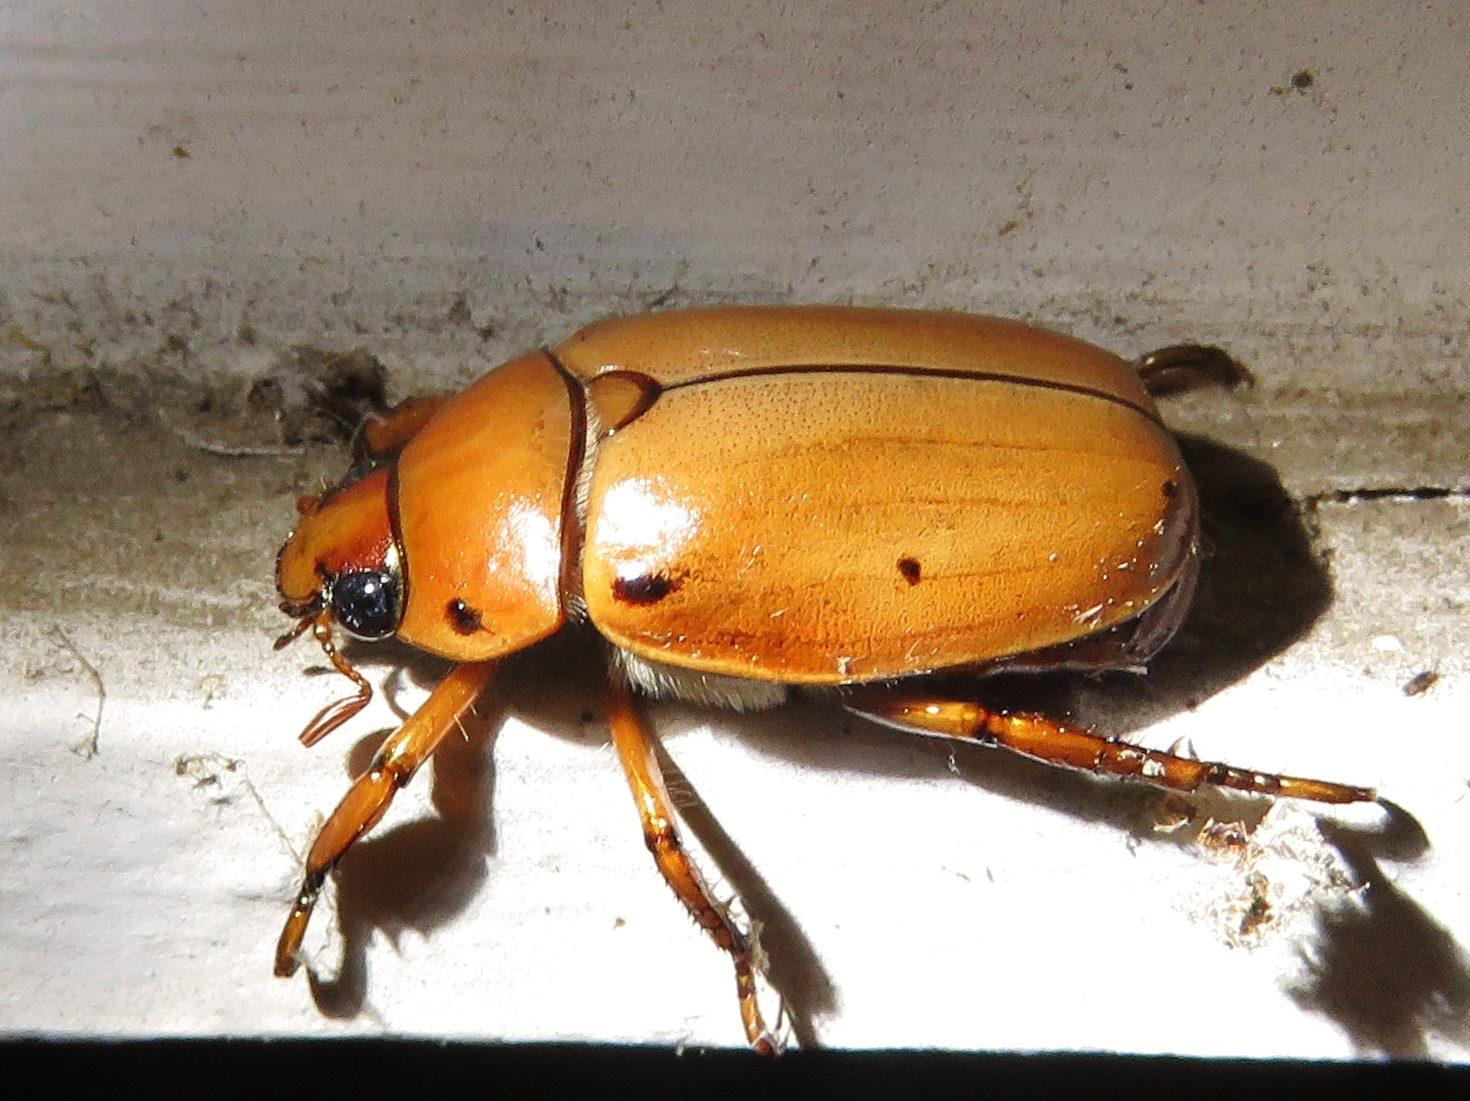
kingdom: Animalia
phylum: Arthropoda
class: Insecta
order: Coleoptera
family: Scarabaeidae
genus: Pelidnota
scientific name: Pelidnota punctata
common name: Grapevine beetle
